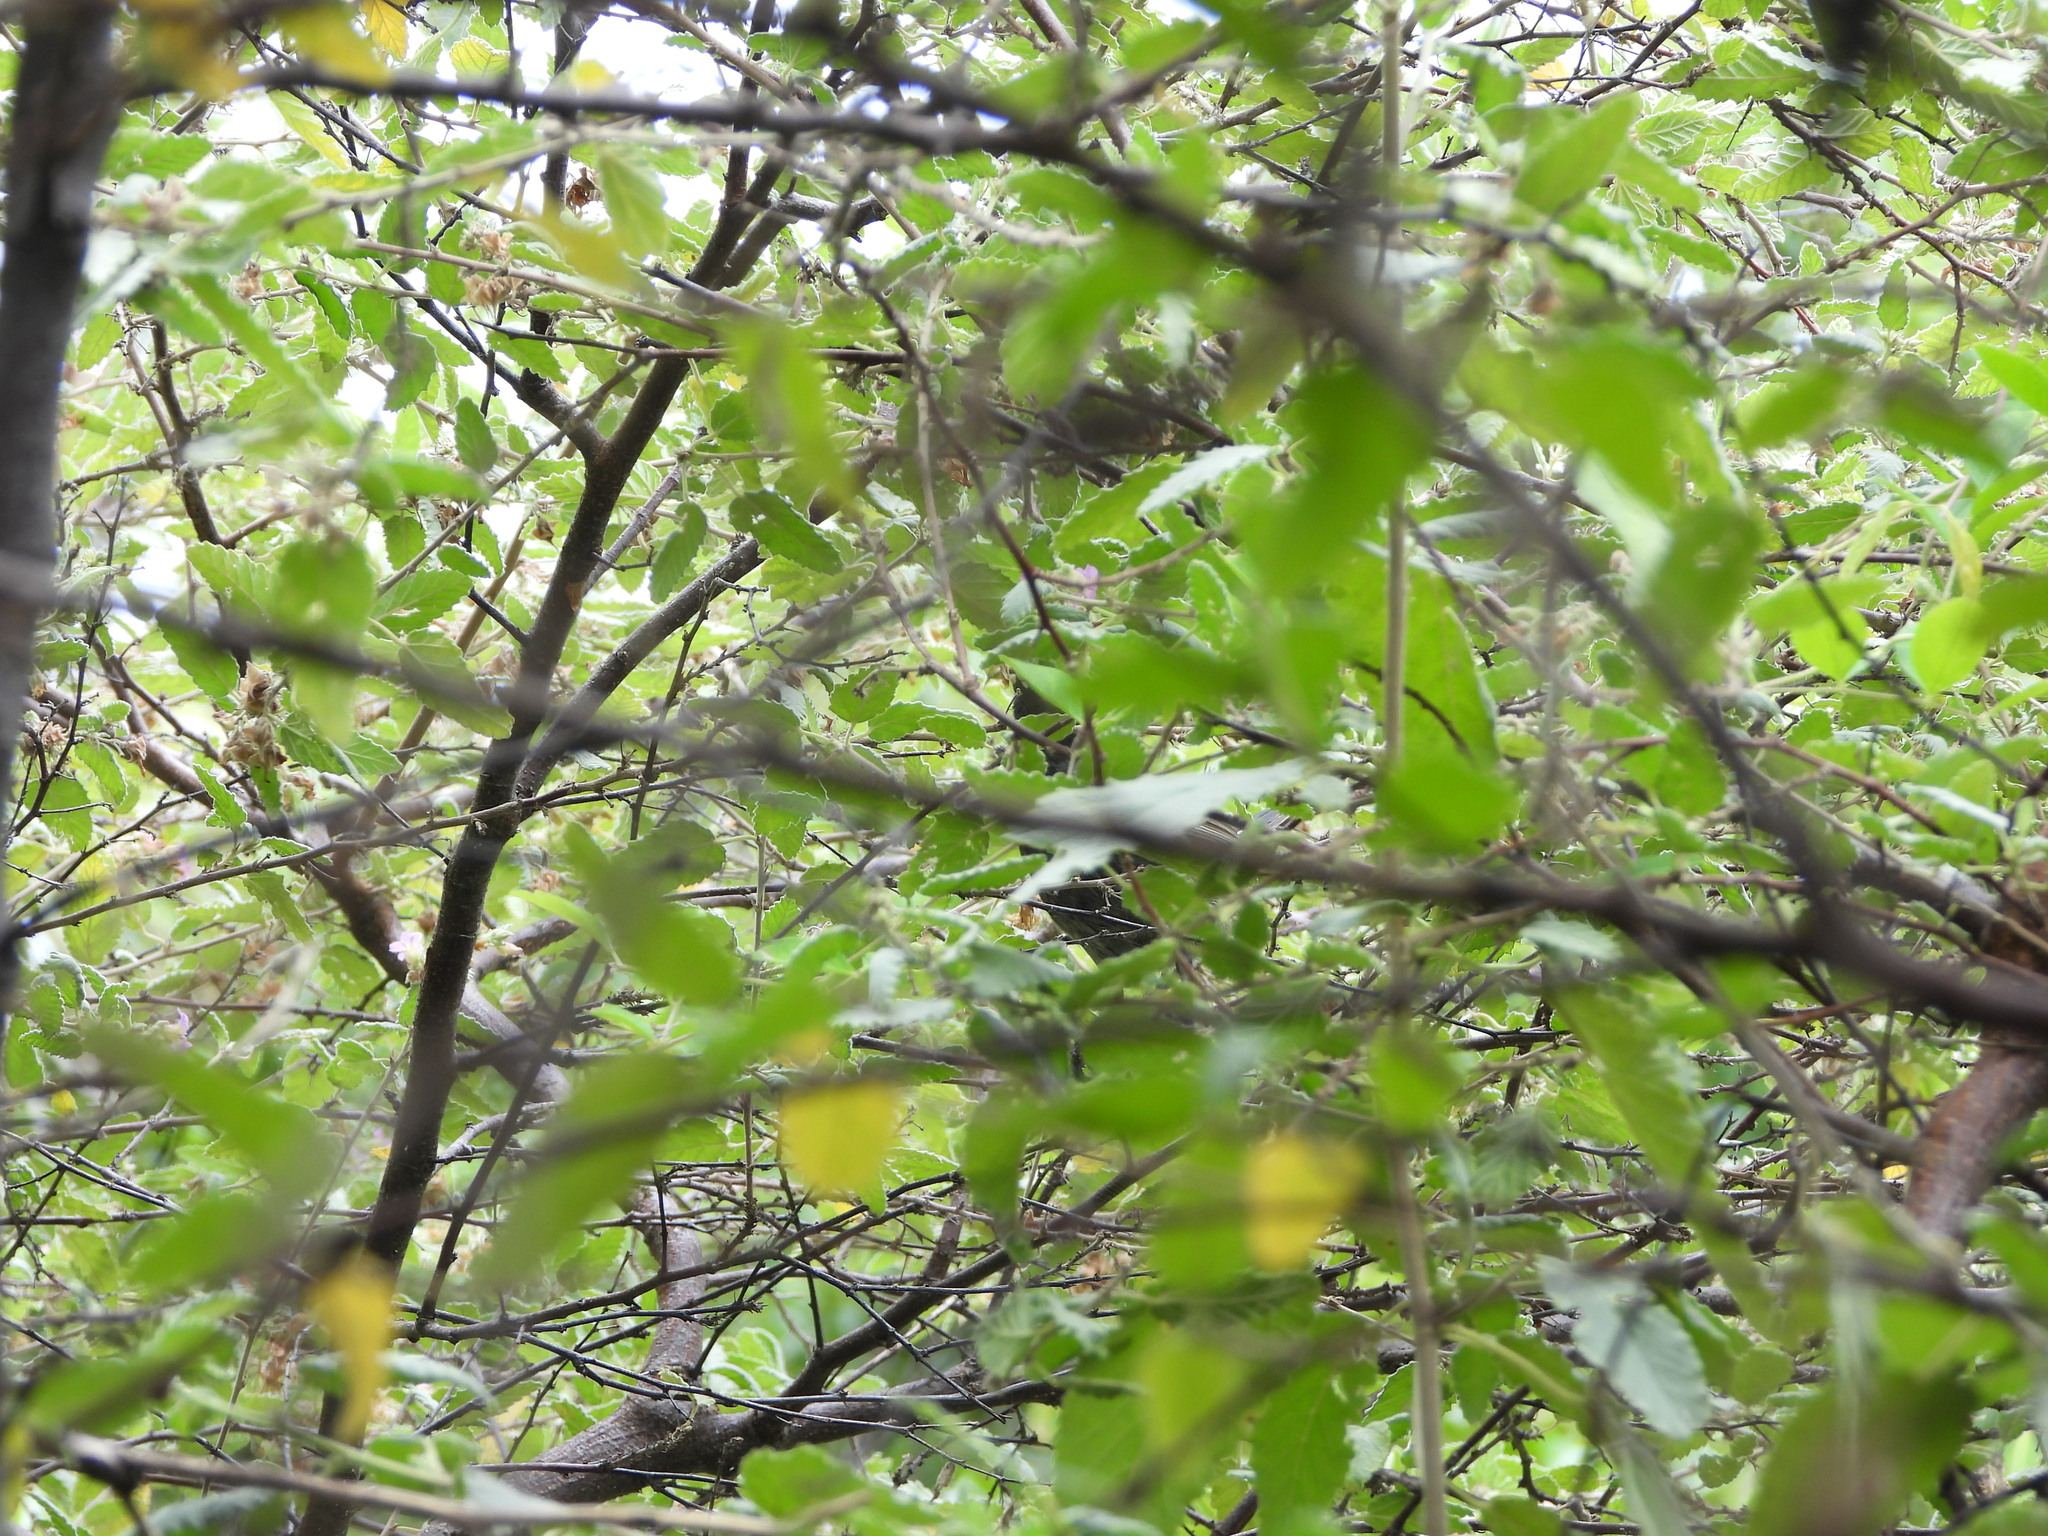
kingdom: Animalia
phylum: Chordata
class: Aves
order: Passeriformes
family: Thraupidae
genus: Melopyrrha
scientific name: Melopyrrha nigra
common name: Cuban bullfinch
